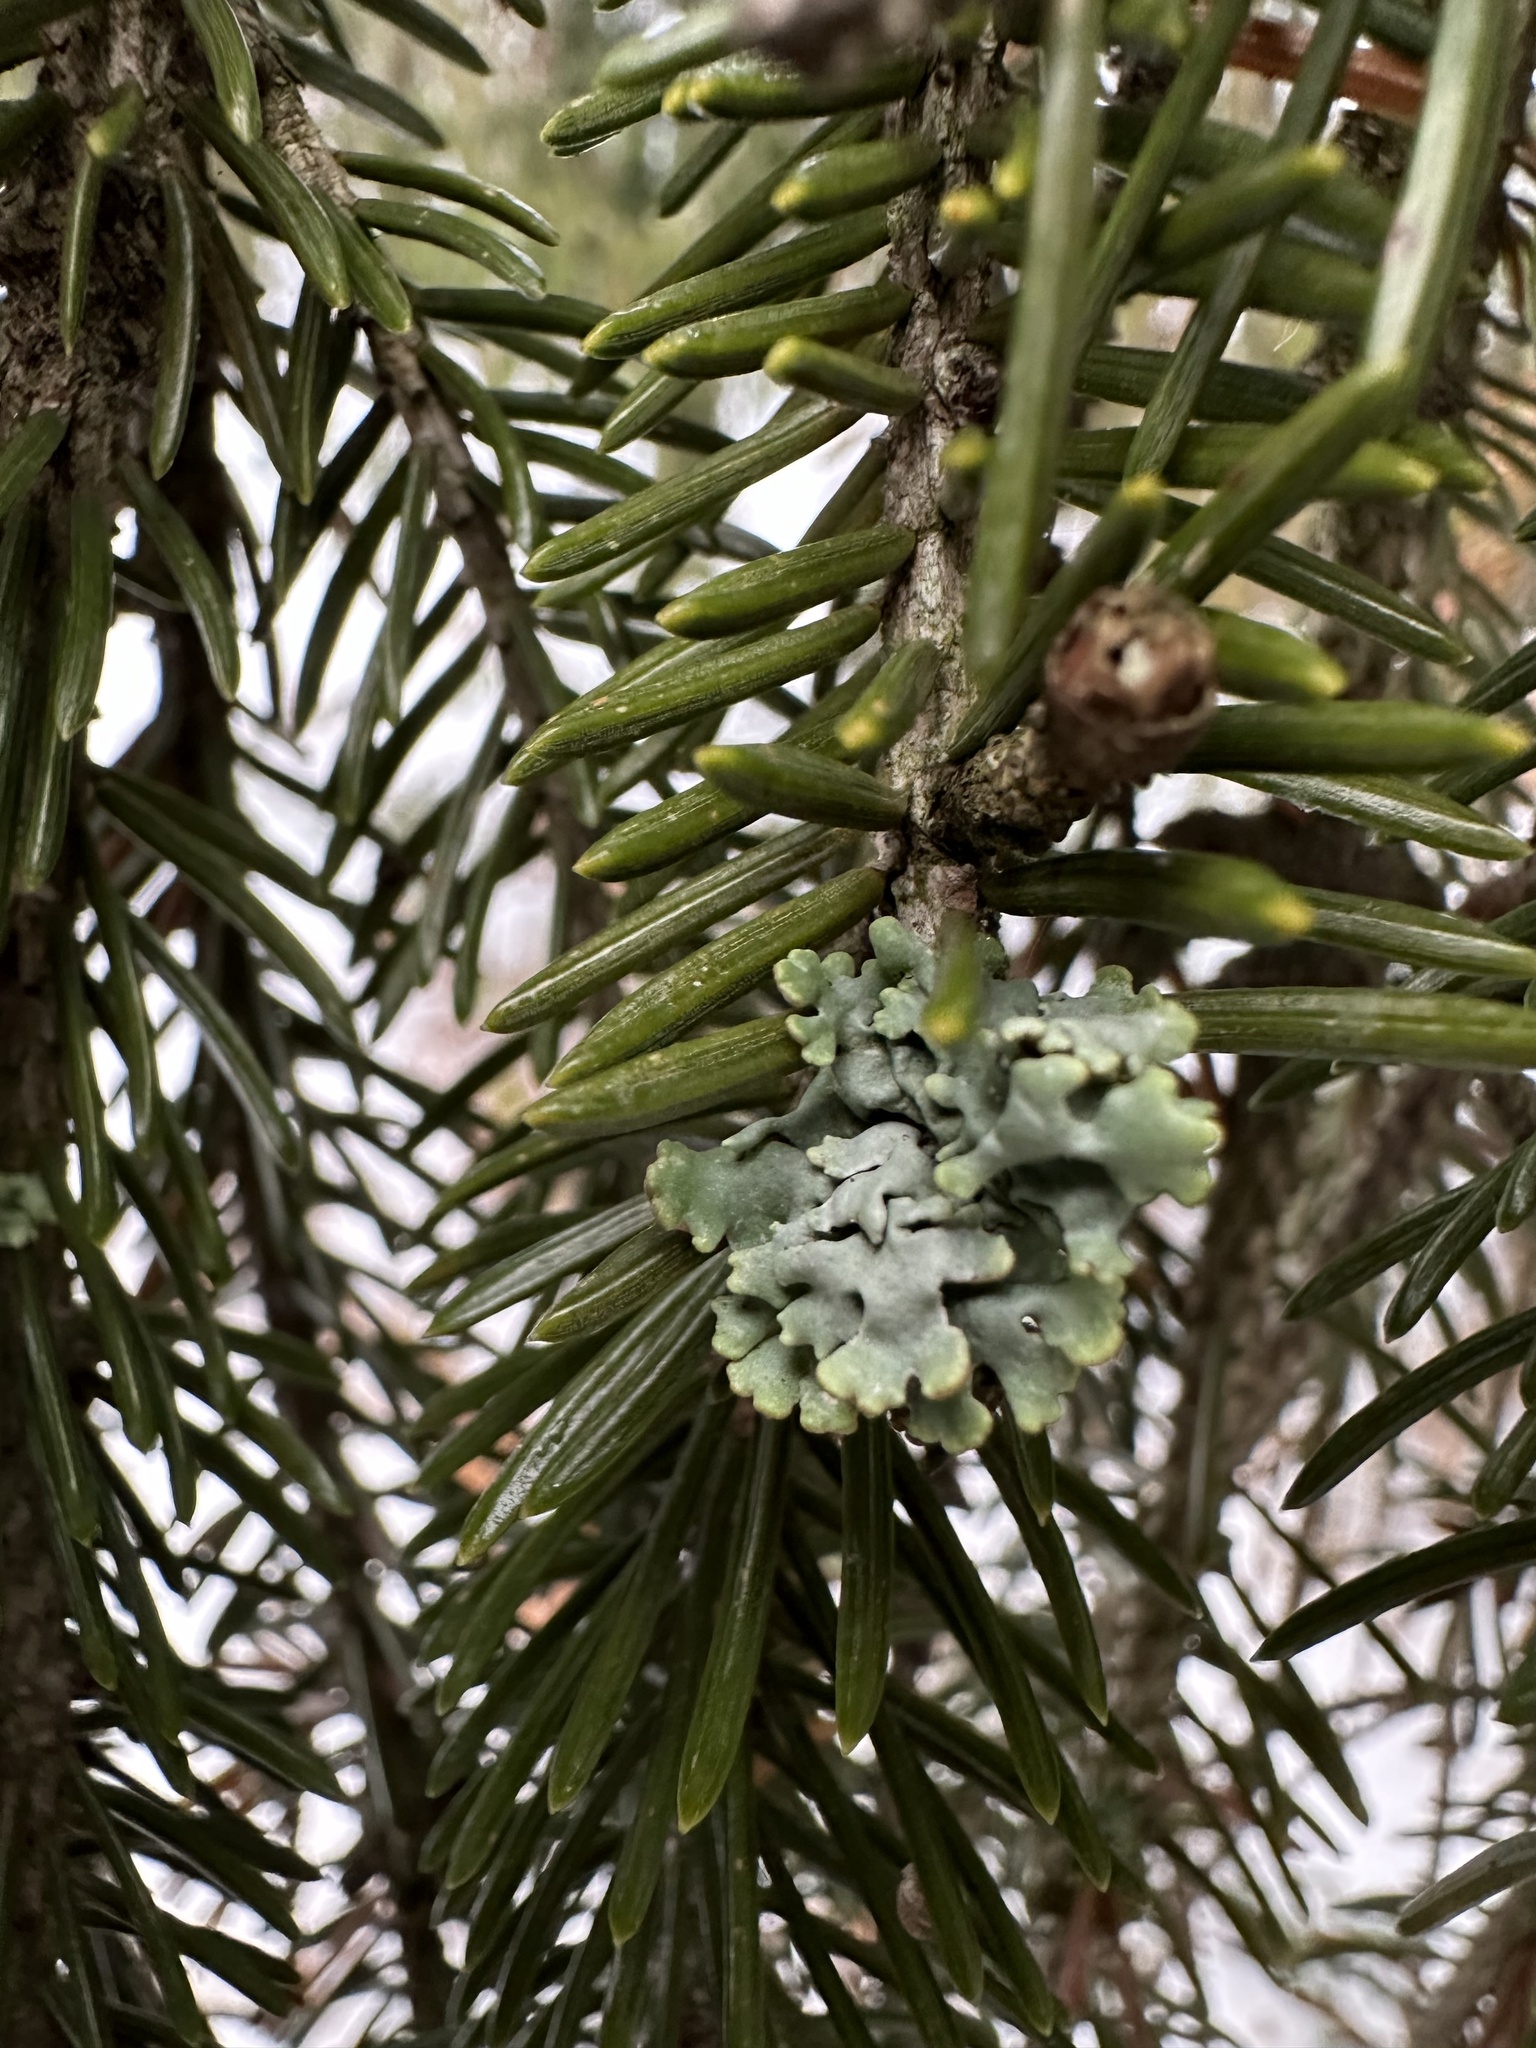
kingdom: Fungi
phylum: Ascomycota
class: Lecanoromycetes
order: Lecanorales
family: Parmeliaceae
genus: Hypogymnia
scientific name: Hypogymnia physodes
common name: Dark crottle
